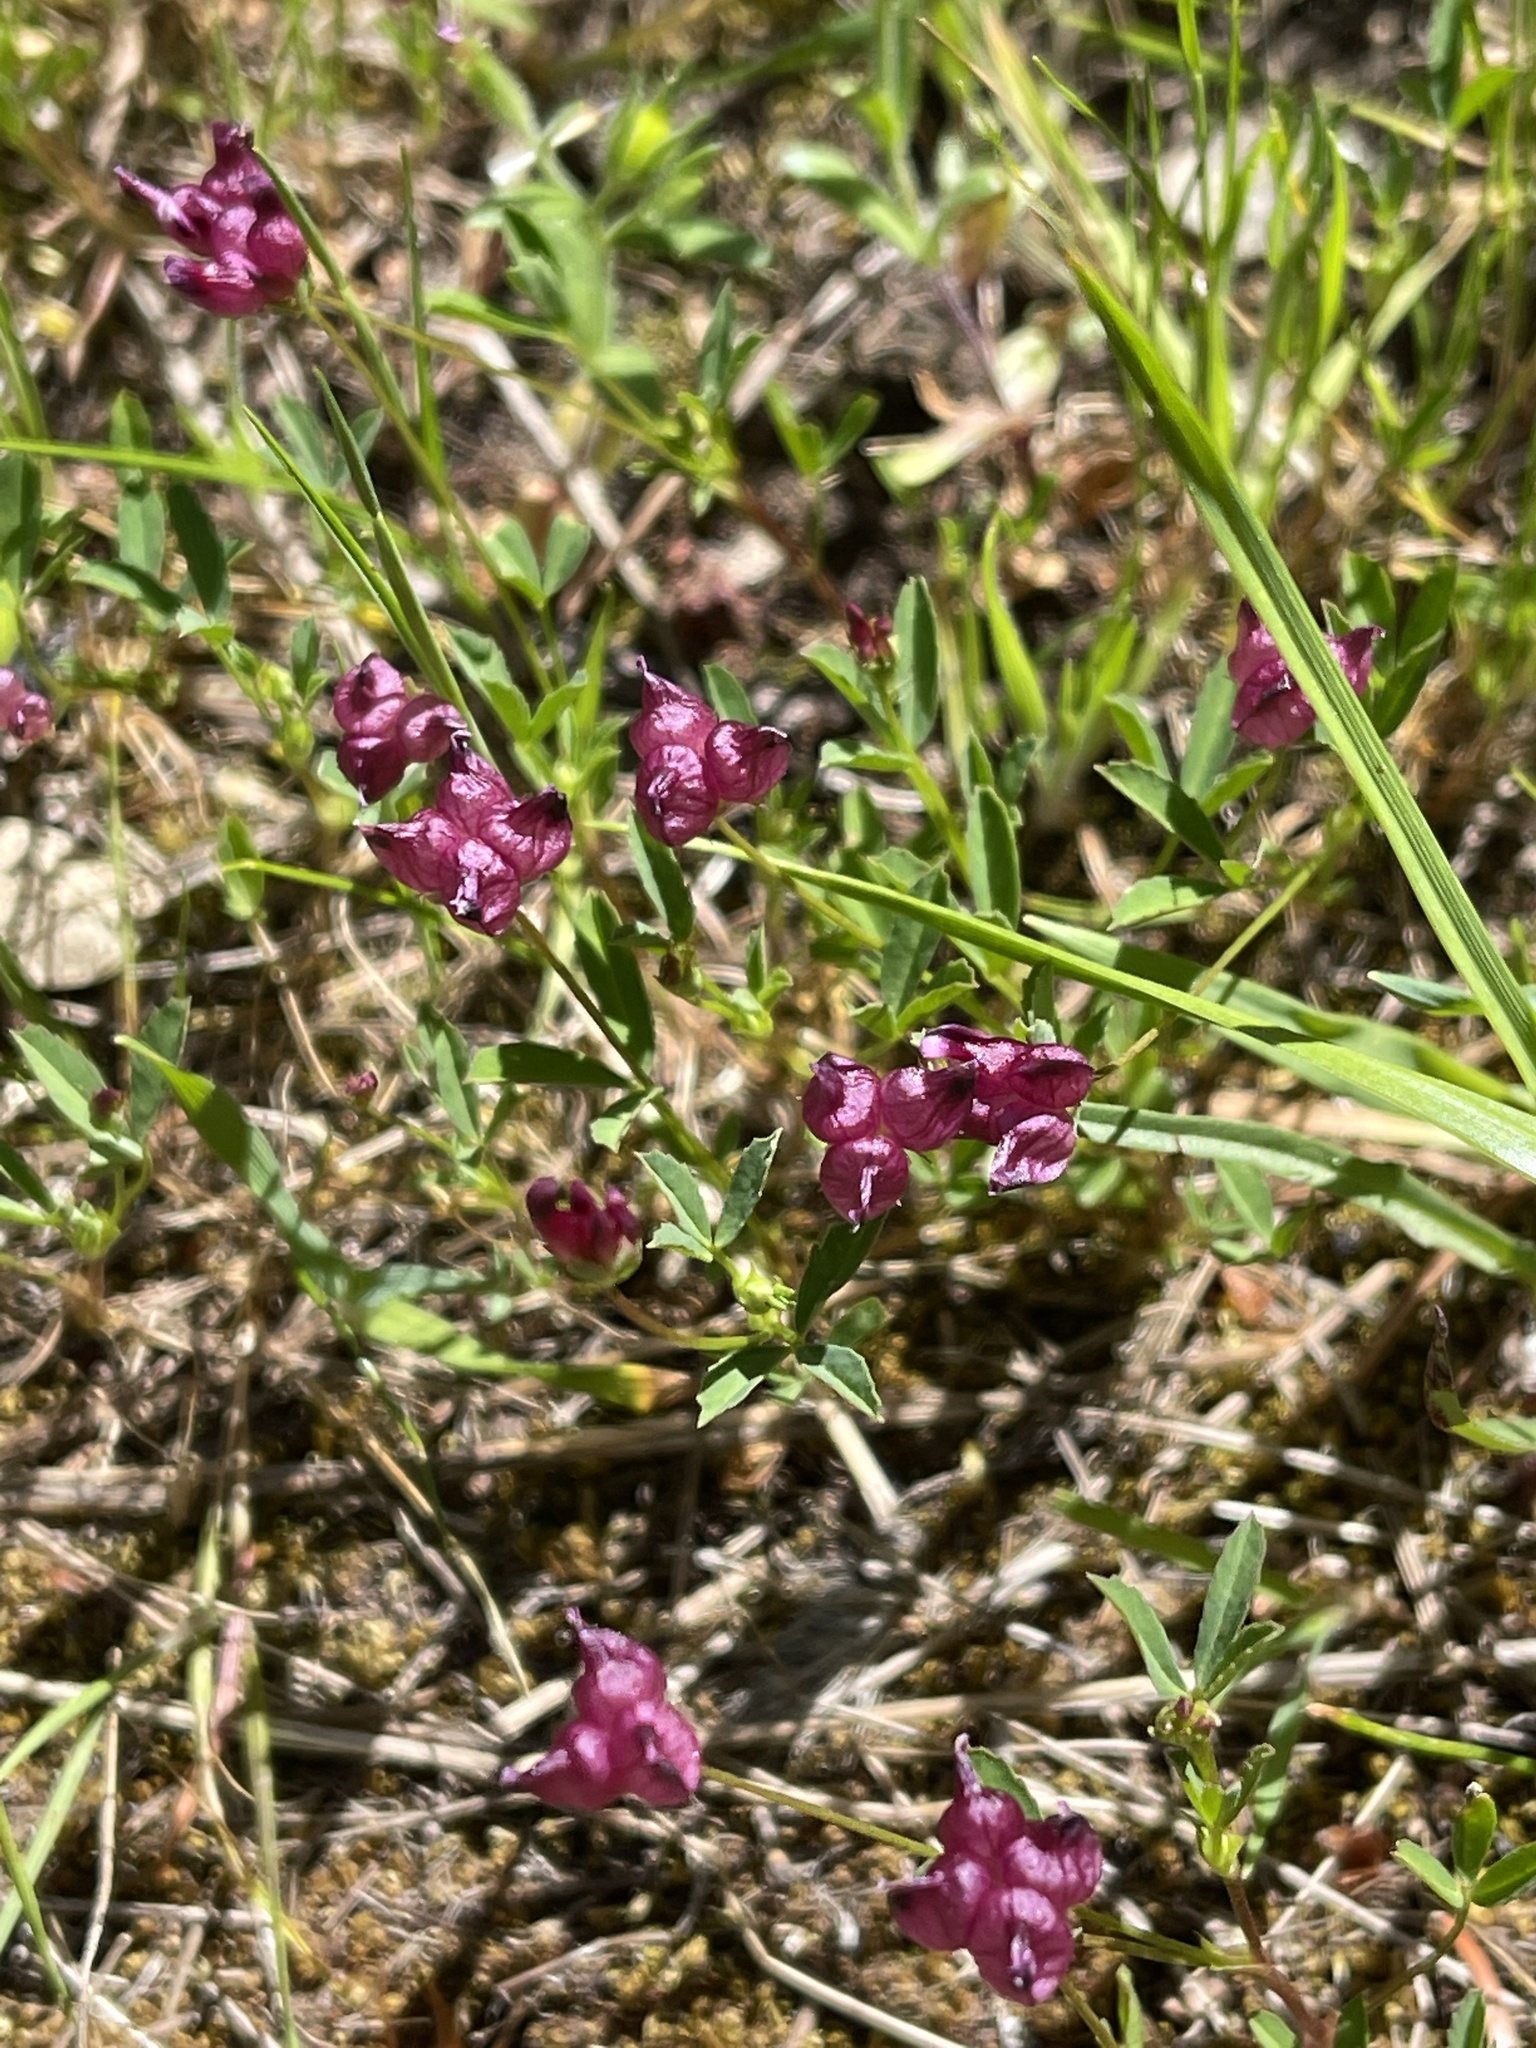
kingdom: Plantae
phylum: Tracheophyta
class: Magnoliopsida
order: Fabales
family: Fabaceae
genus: Trifolium
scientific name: Trifolium depauperatum
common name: Poverty clover
